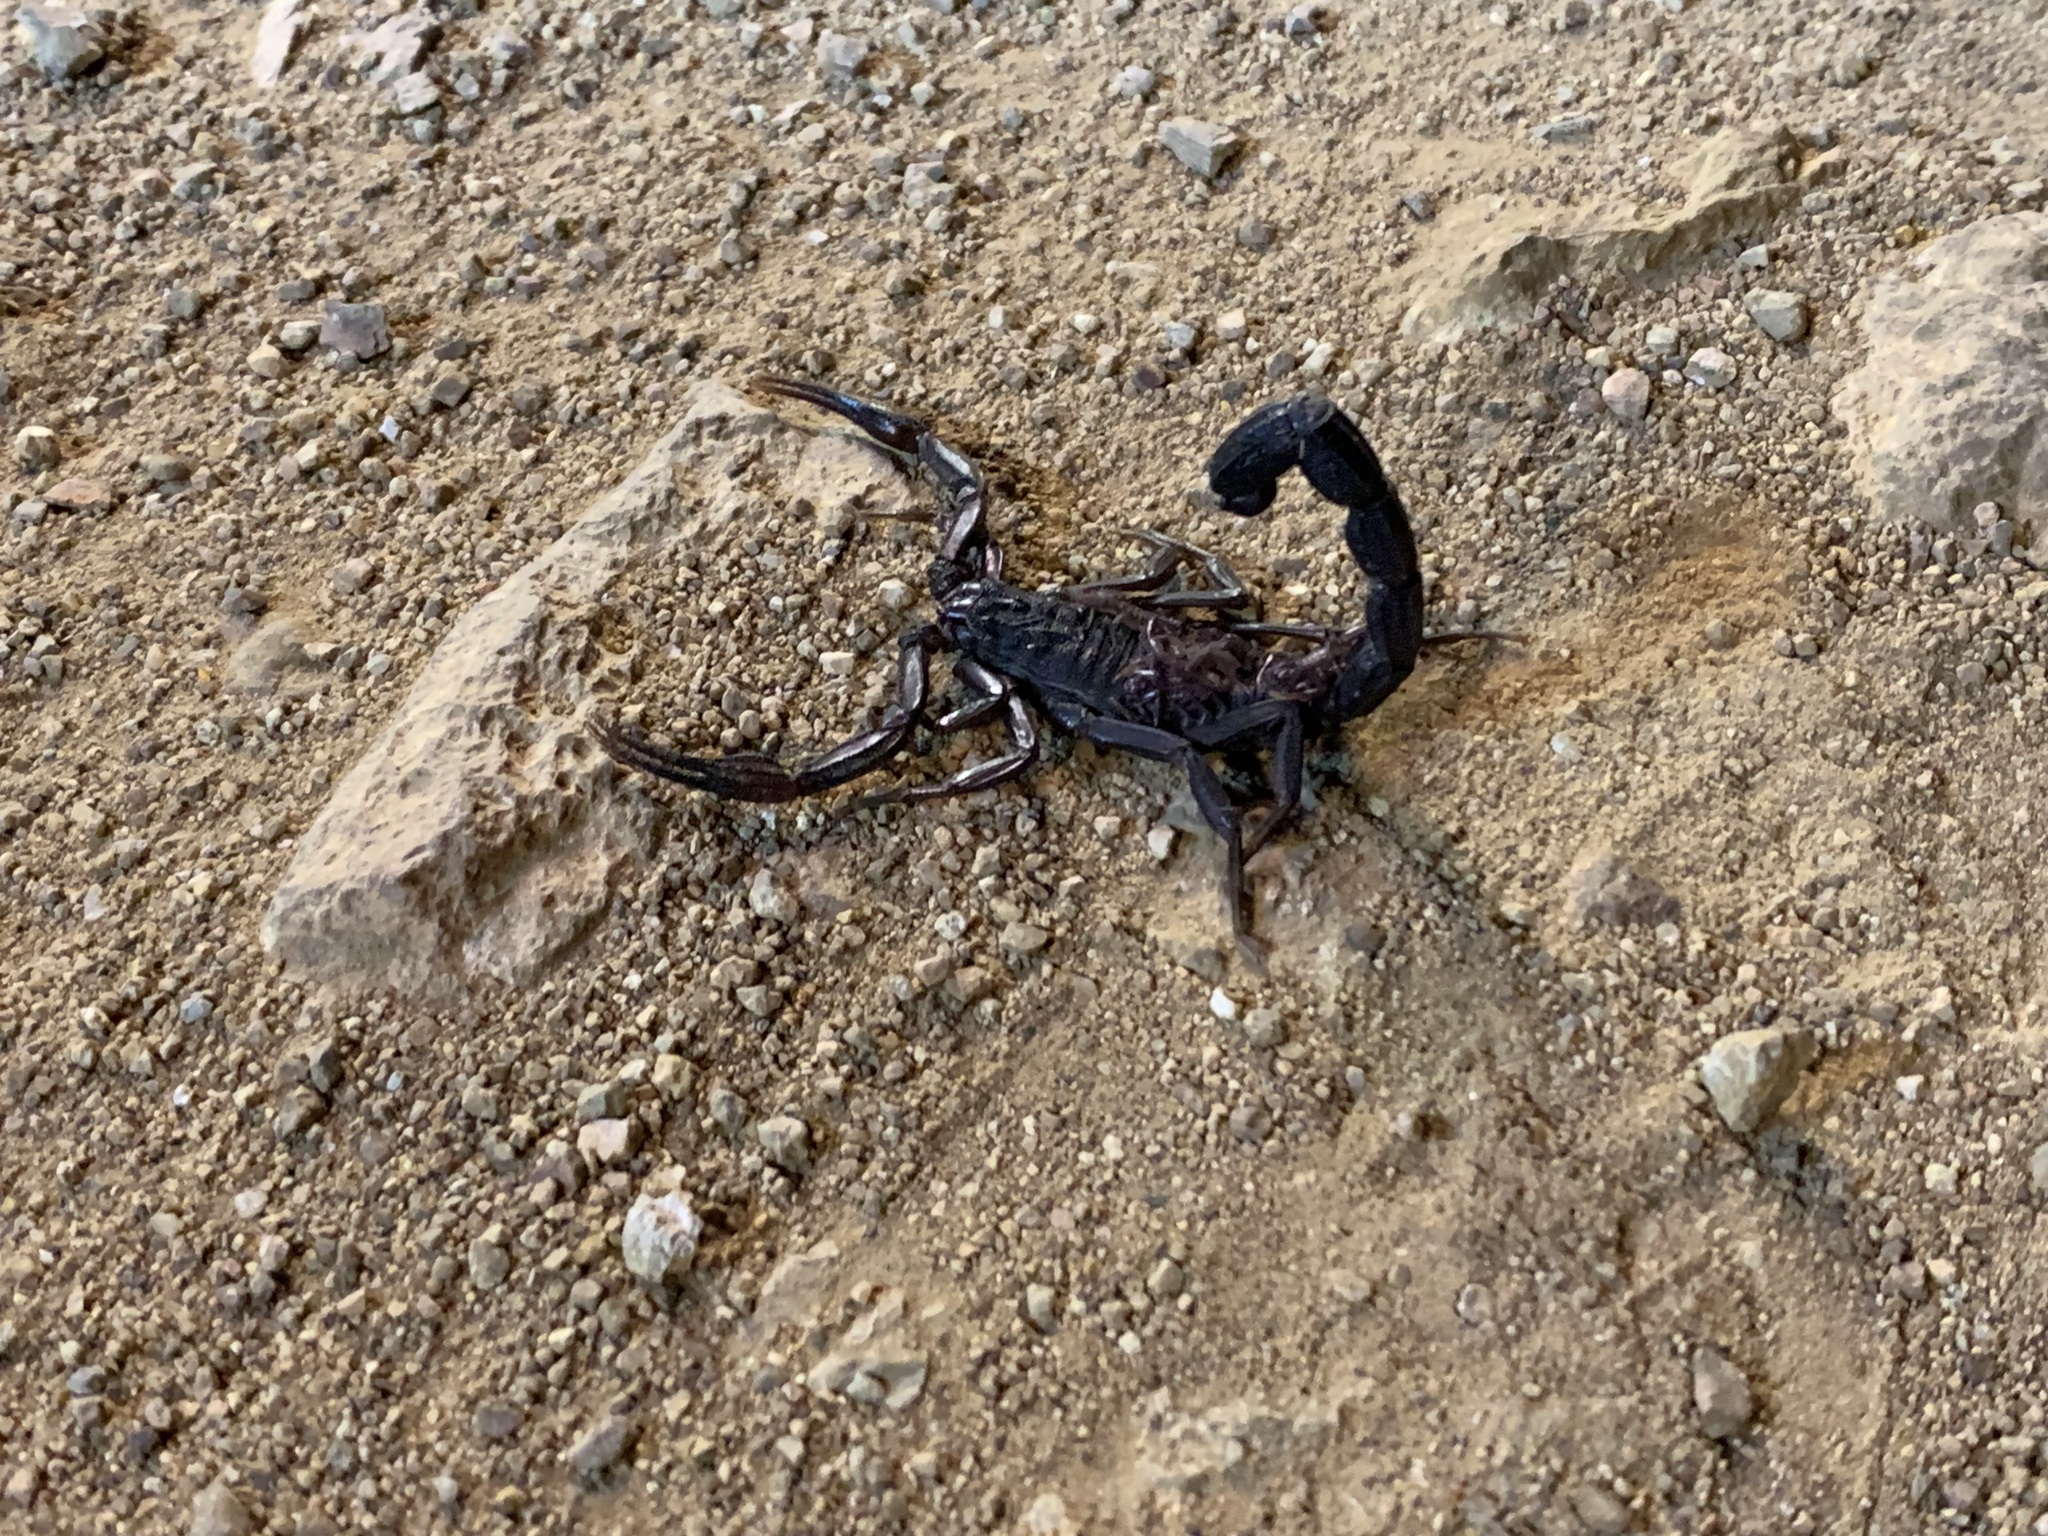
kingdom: Animalia
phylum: Arthropoda
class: Arachnida
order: Scorpiones
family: Buthidae
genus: Jaguajir
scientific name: Jaguajir pintoi
